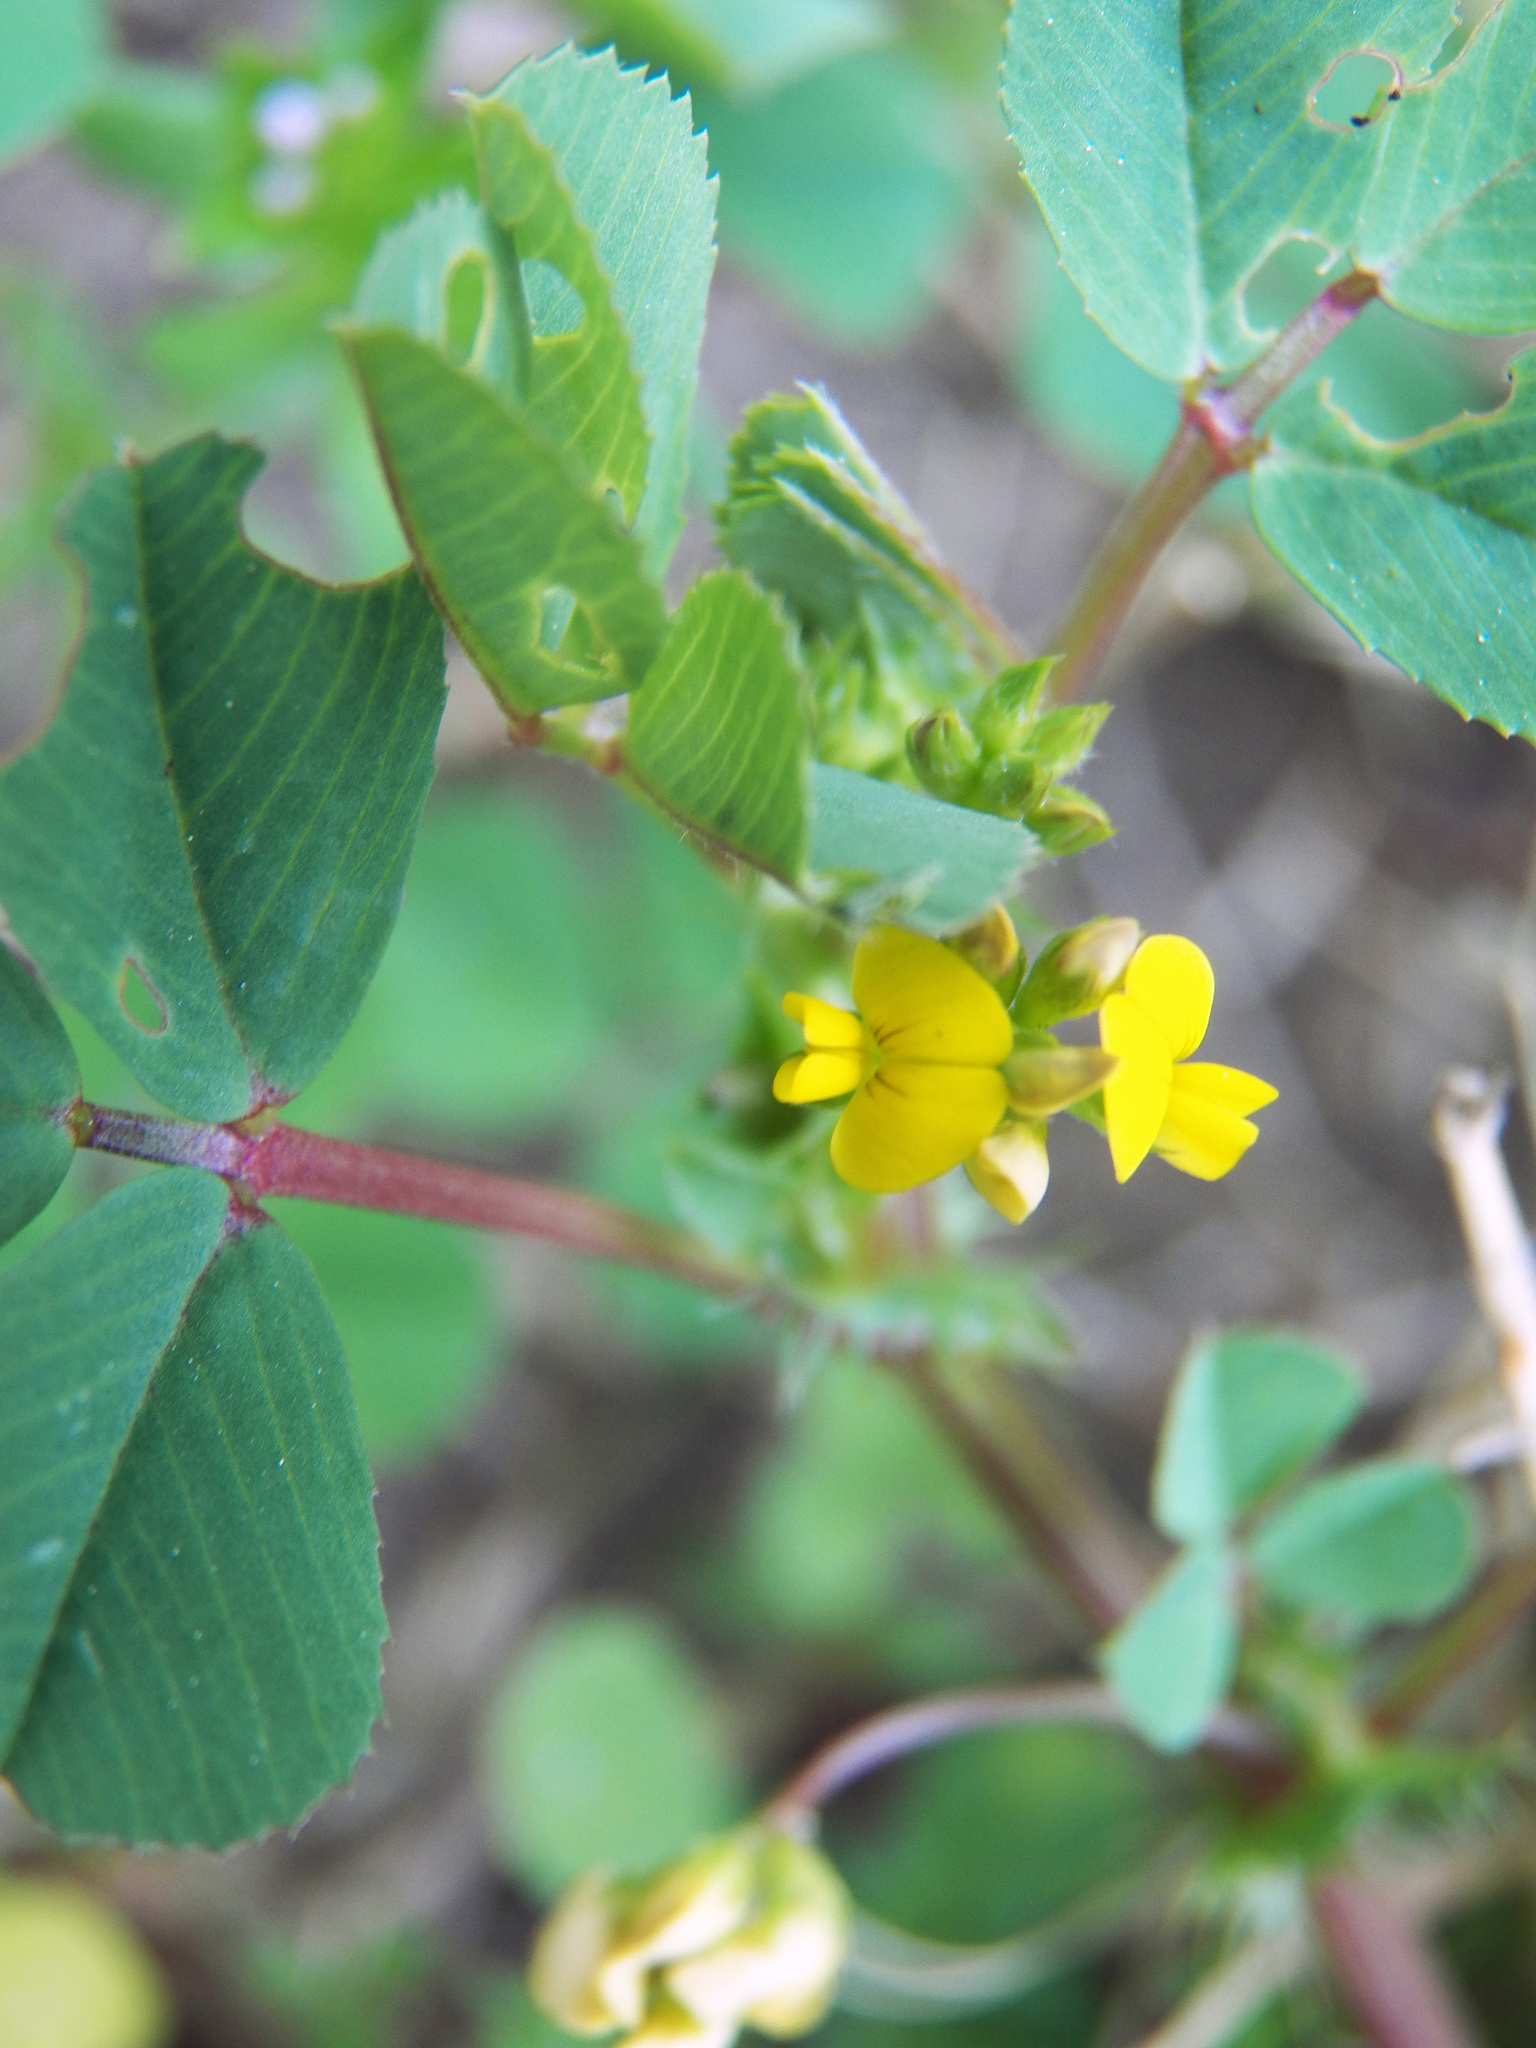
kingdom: Plantae
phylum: Tracheophyta
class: Magnoliopsida
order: Fabales
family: Fabaceae
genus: Medicago
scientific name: Medicago polymorpha
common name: Burclover
